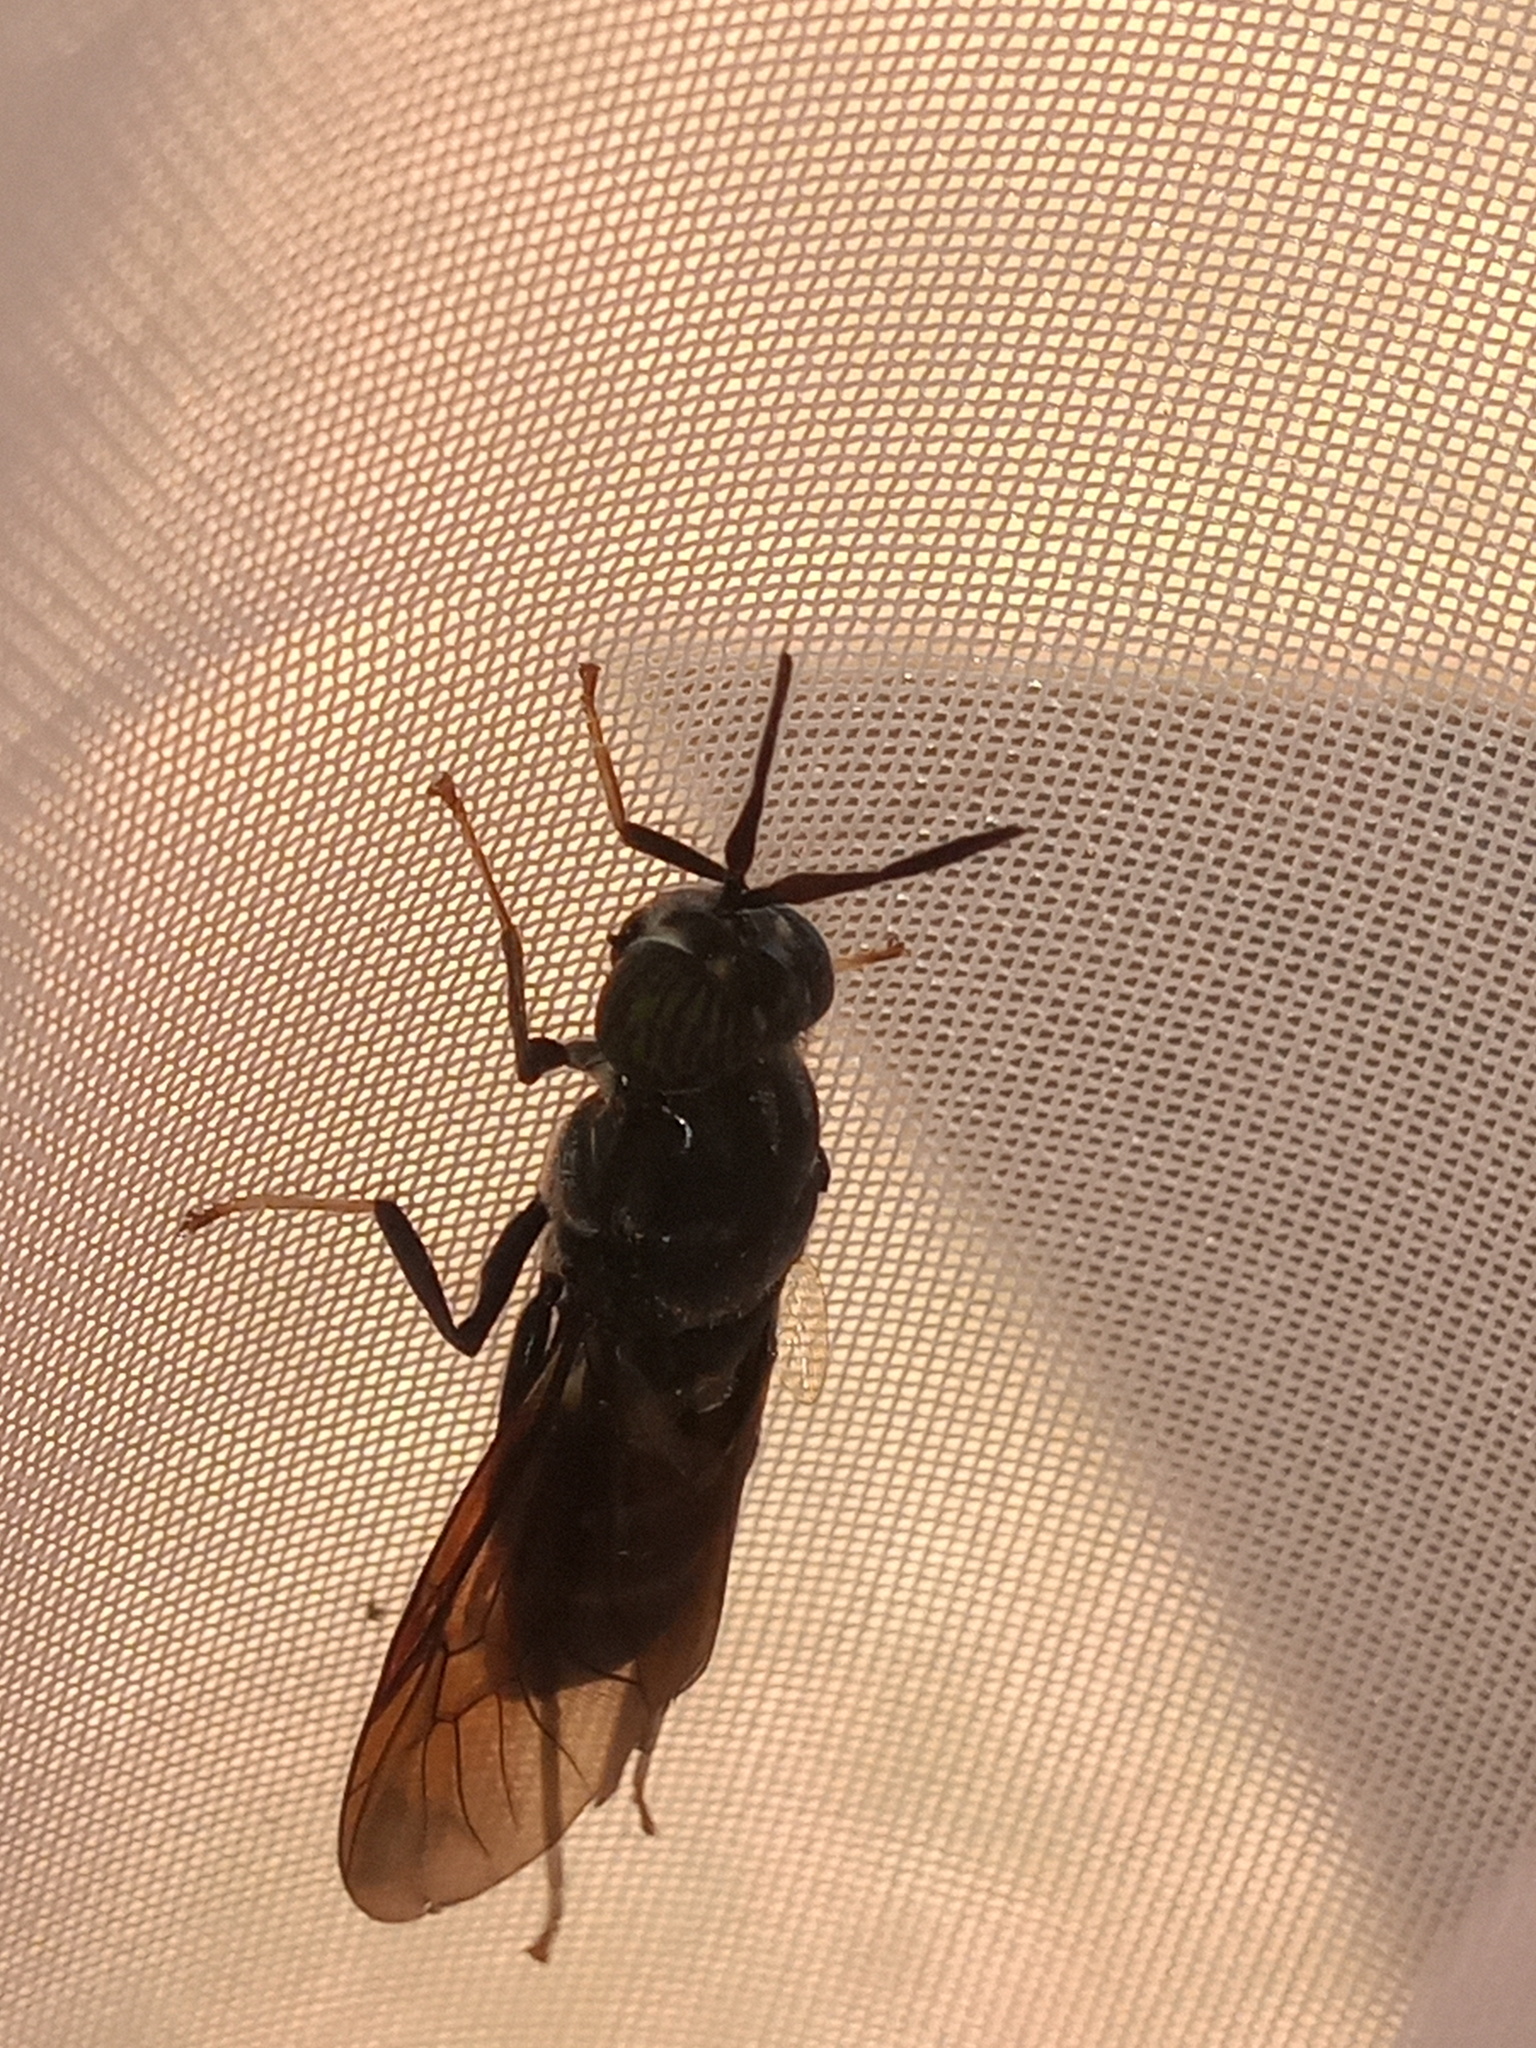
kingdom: Animalia
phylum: Arthropoda
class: Insecta
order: Diptera
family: Stratiomyidae
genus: Hermetia
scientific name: Hermetia illucens
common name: Black soldier fly
